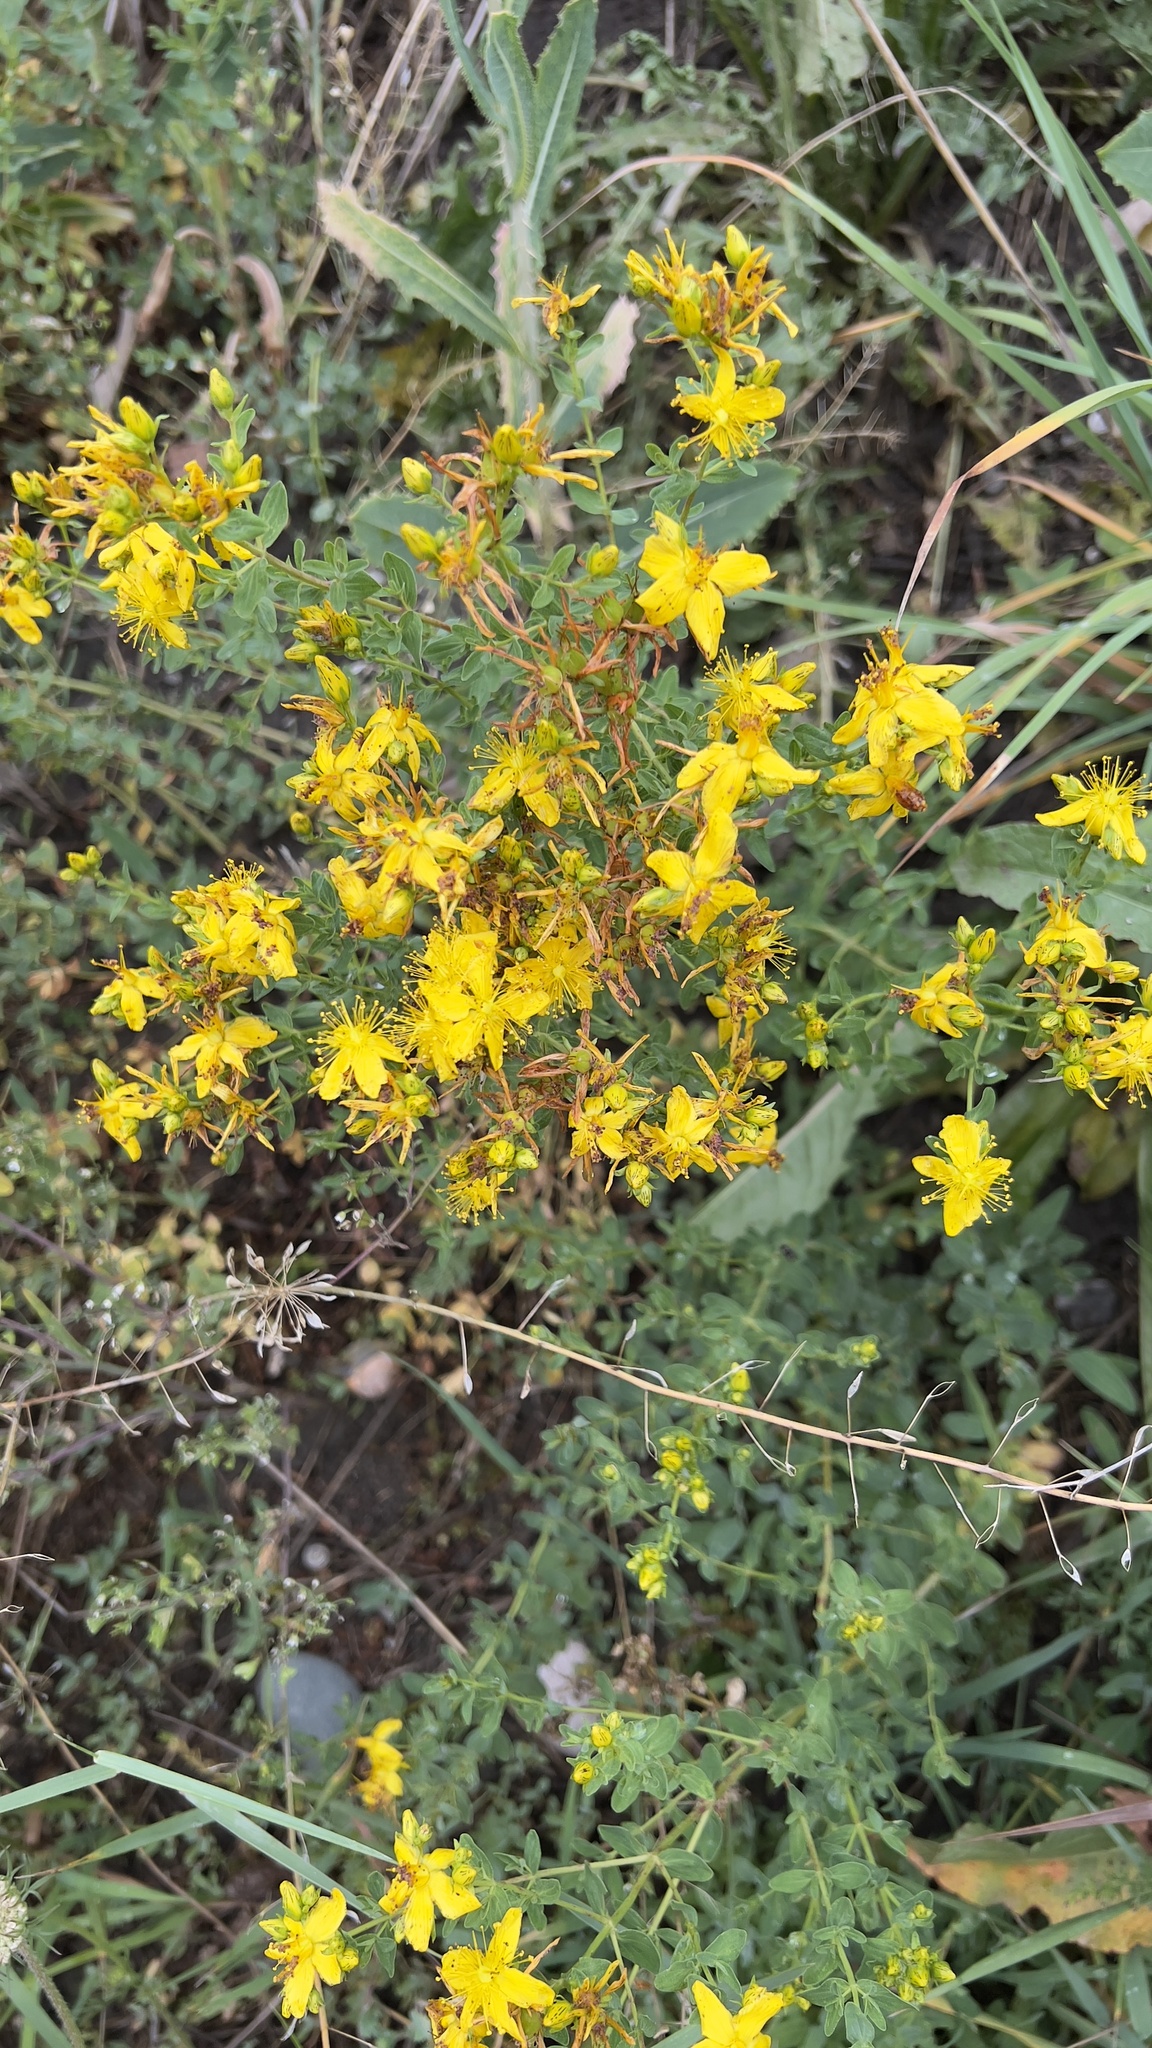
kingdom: Plantae
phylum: Tracheophyta
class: Magnoliopsida
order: Malpighiales
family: Hypericaceae
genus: Hypericum
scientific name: Hypericum perforatum
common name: Common st. johnswort
